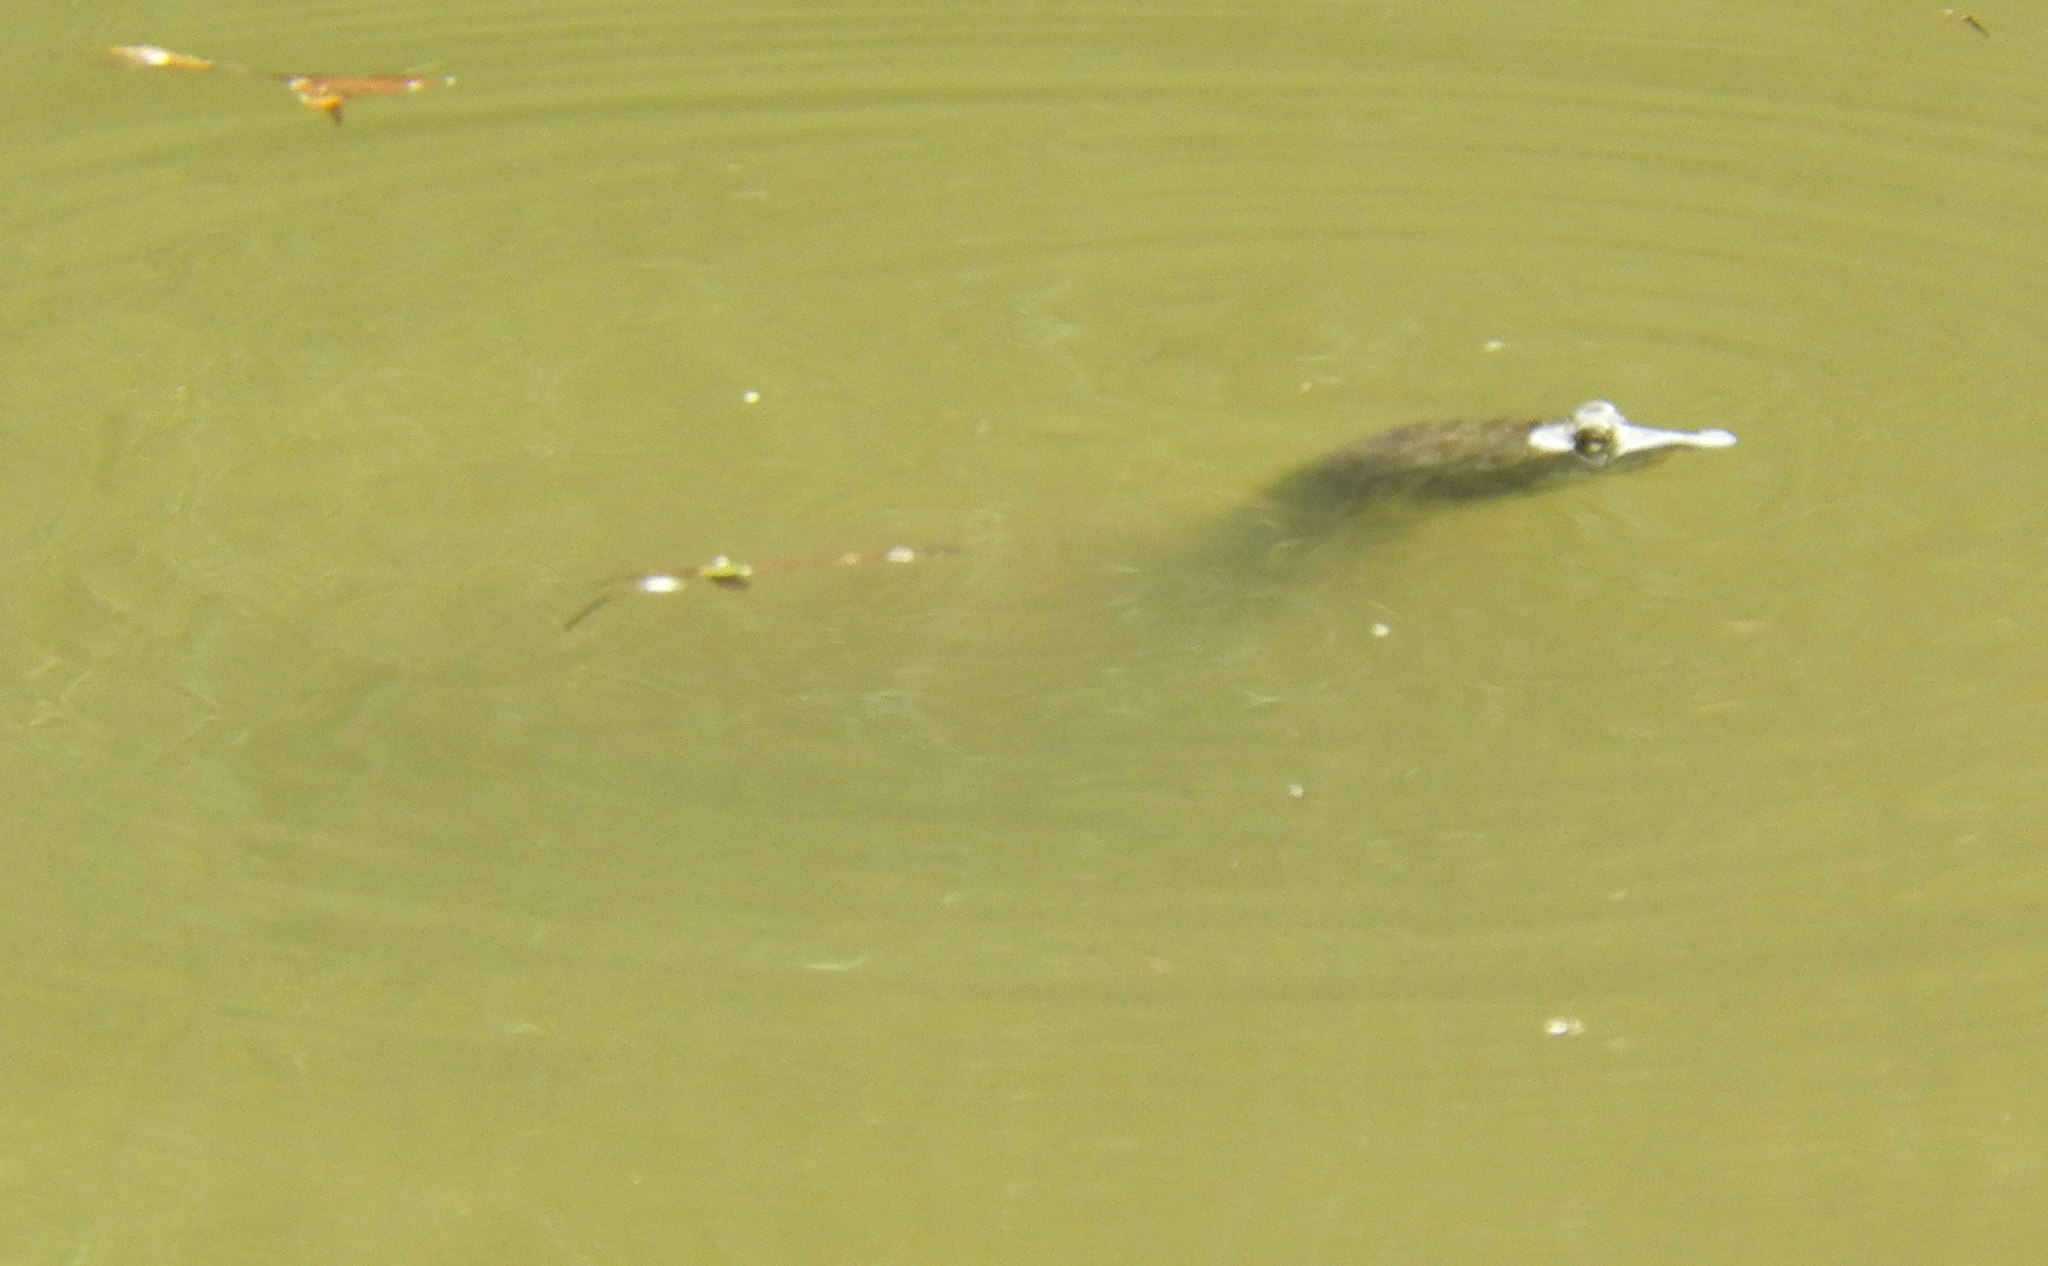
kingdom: Animalia
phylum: Chordata
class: Testudines
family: Trionychidae
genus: Apalone
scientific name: Apalone spinifera
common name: Spiny softshell turtle
